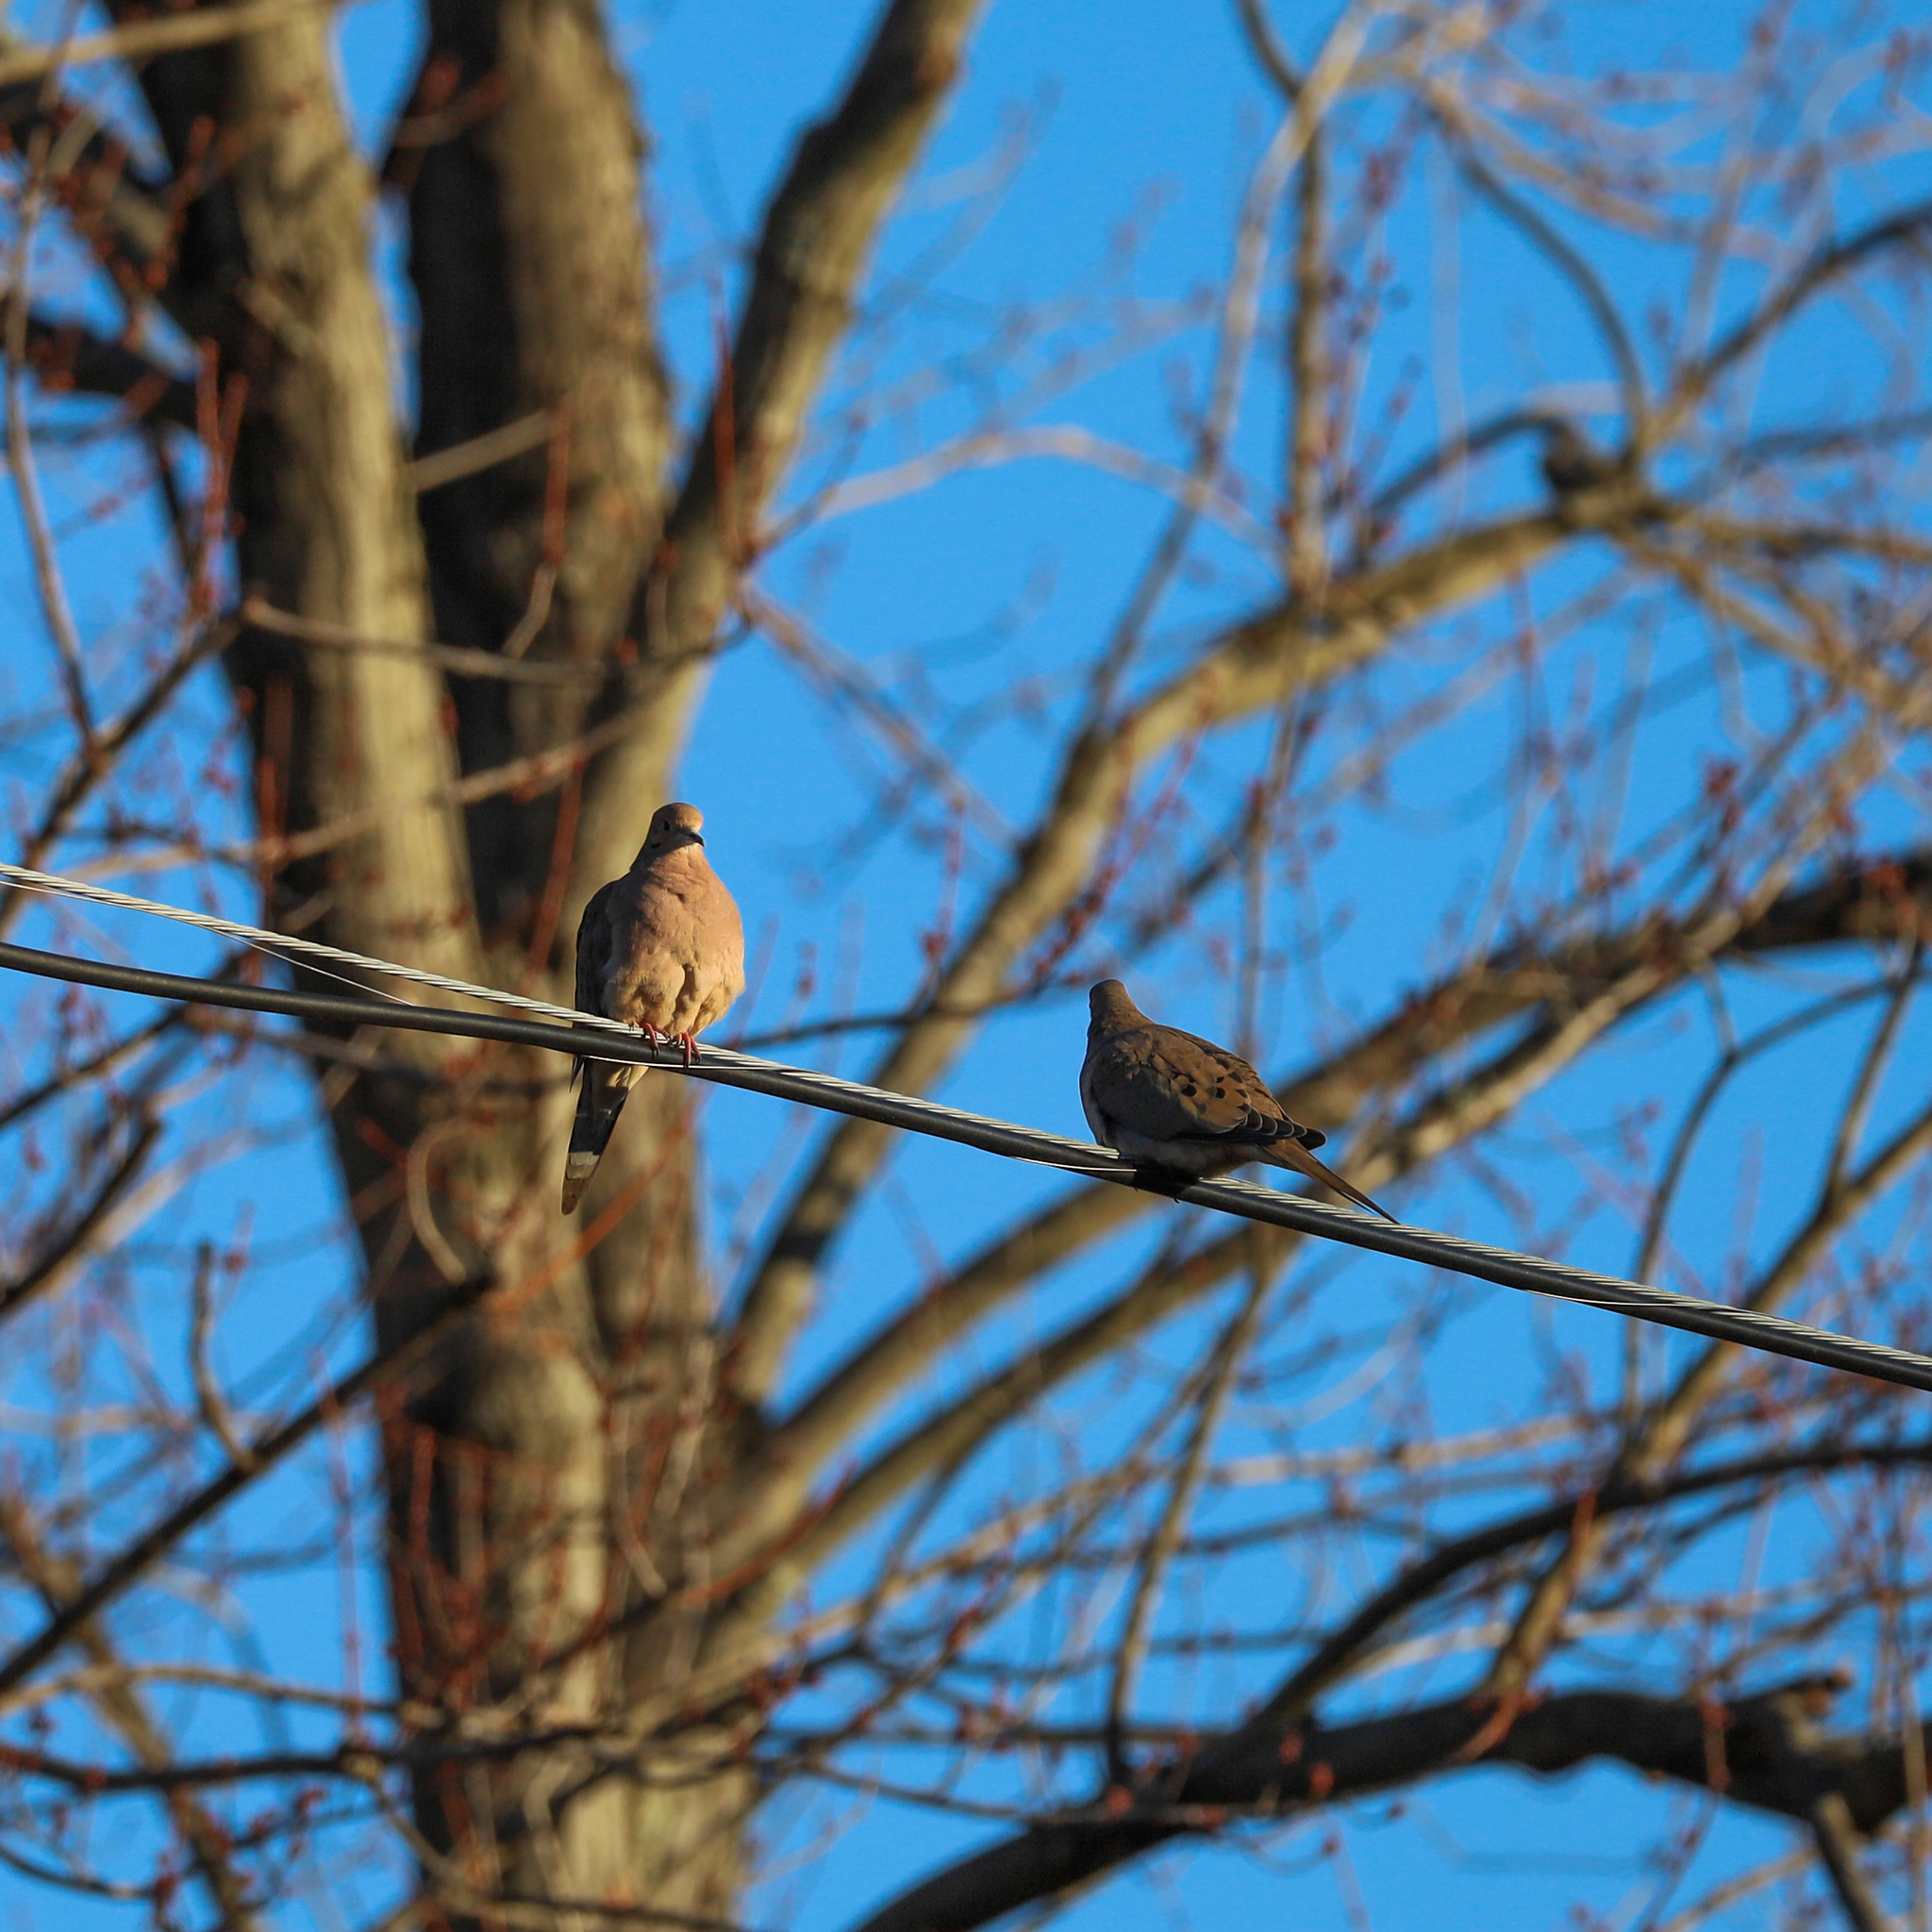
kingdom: Animalia
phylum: Chordata
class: Aves
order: Columbiformes
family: Columbidae
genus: Zenaida
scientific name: Zenaida macroura
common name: Mourning dove
